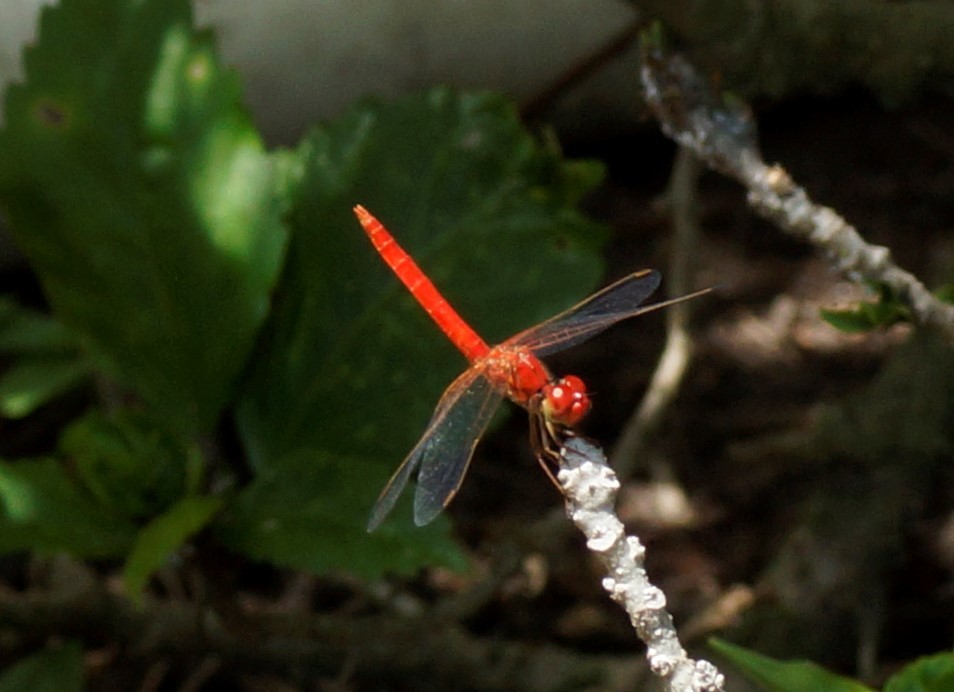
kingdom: Animalia
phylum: Arthropoda
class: Insecta
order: Odonata
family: Libellulidae
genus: Diplacodes
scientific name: Diplacodes haematodes
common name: Scarlet percher
